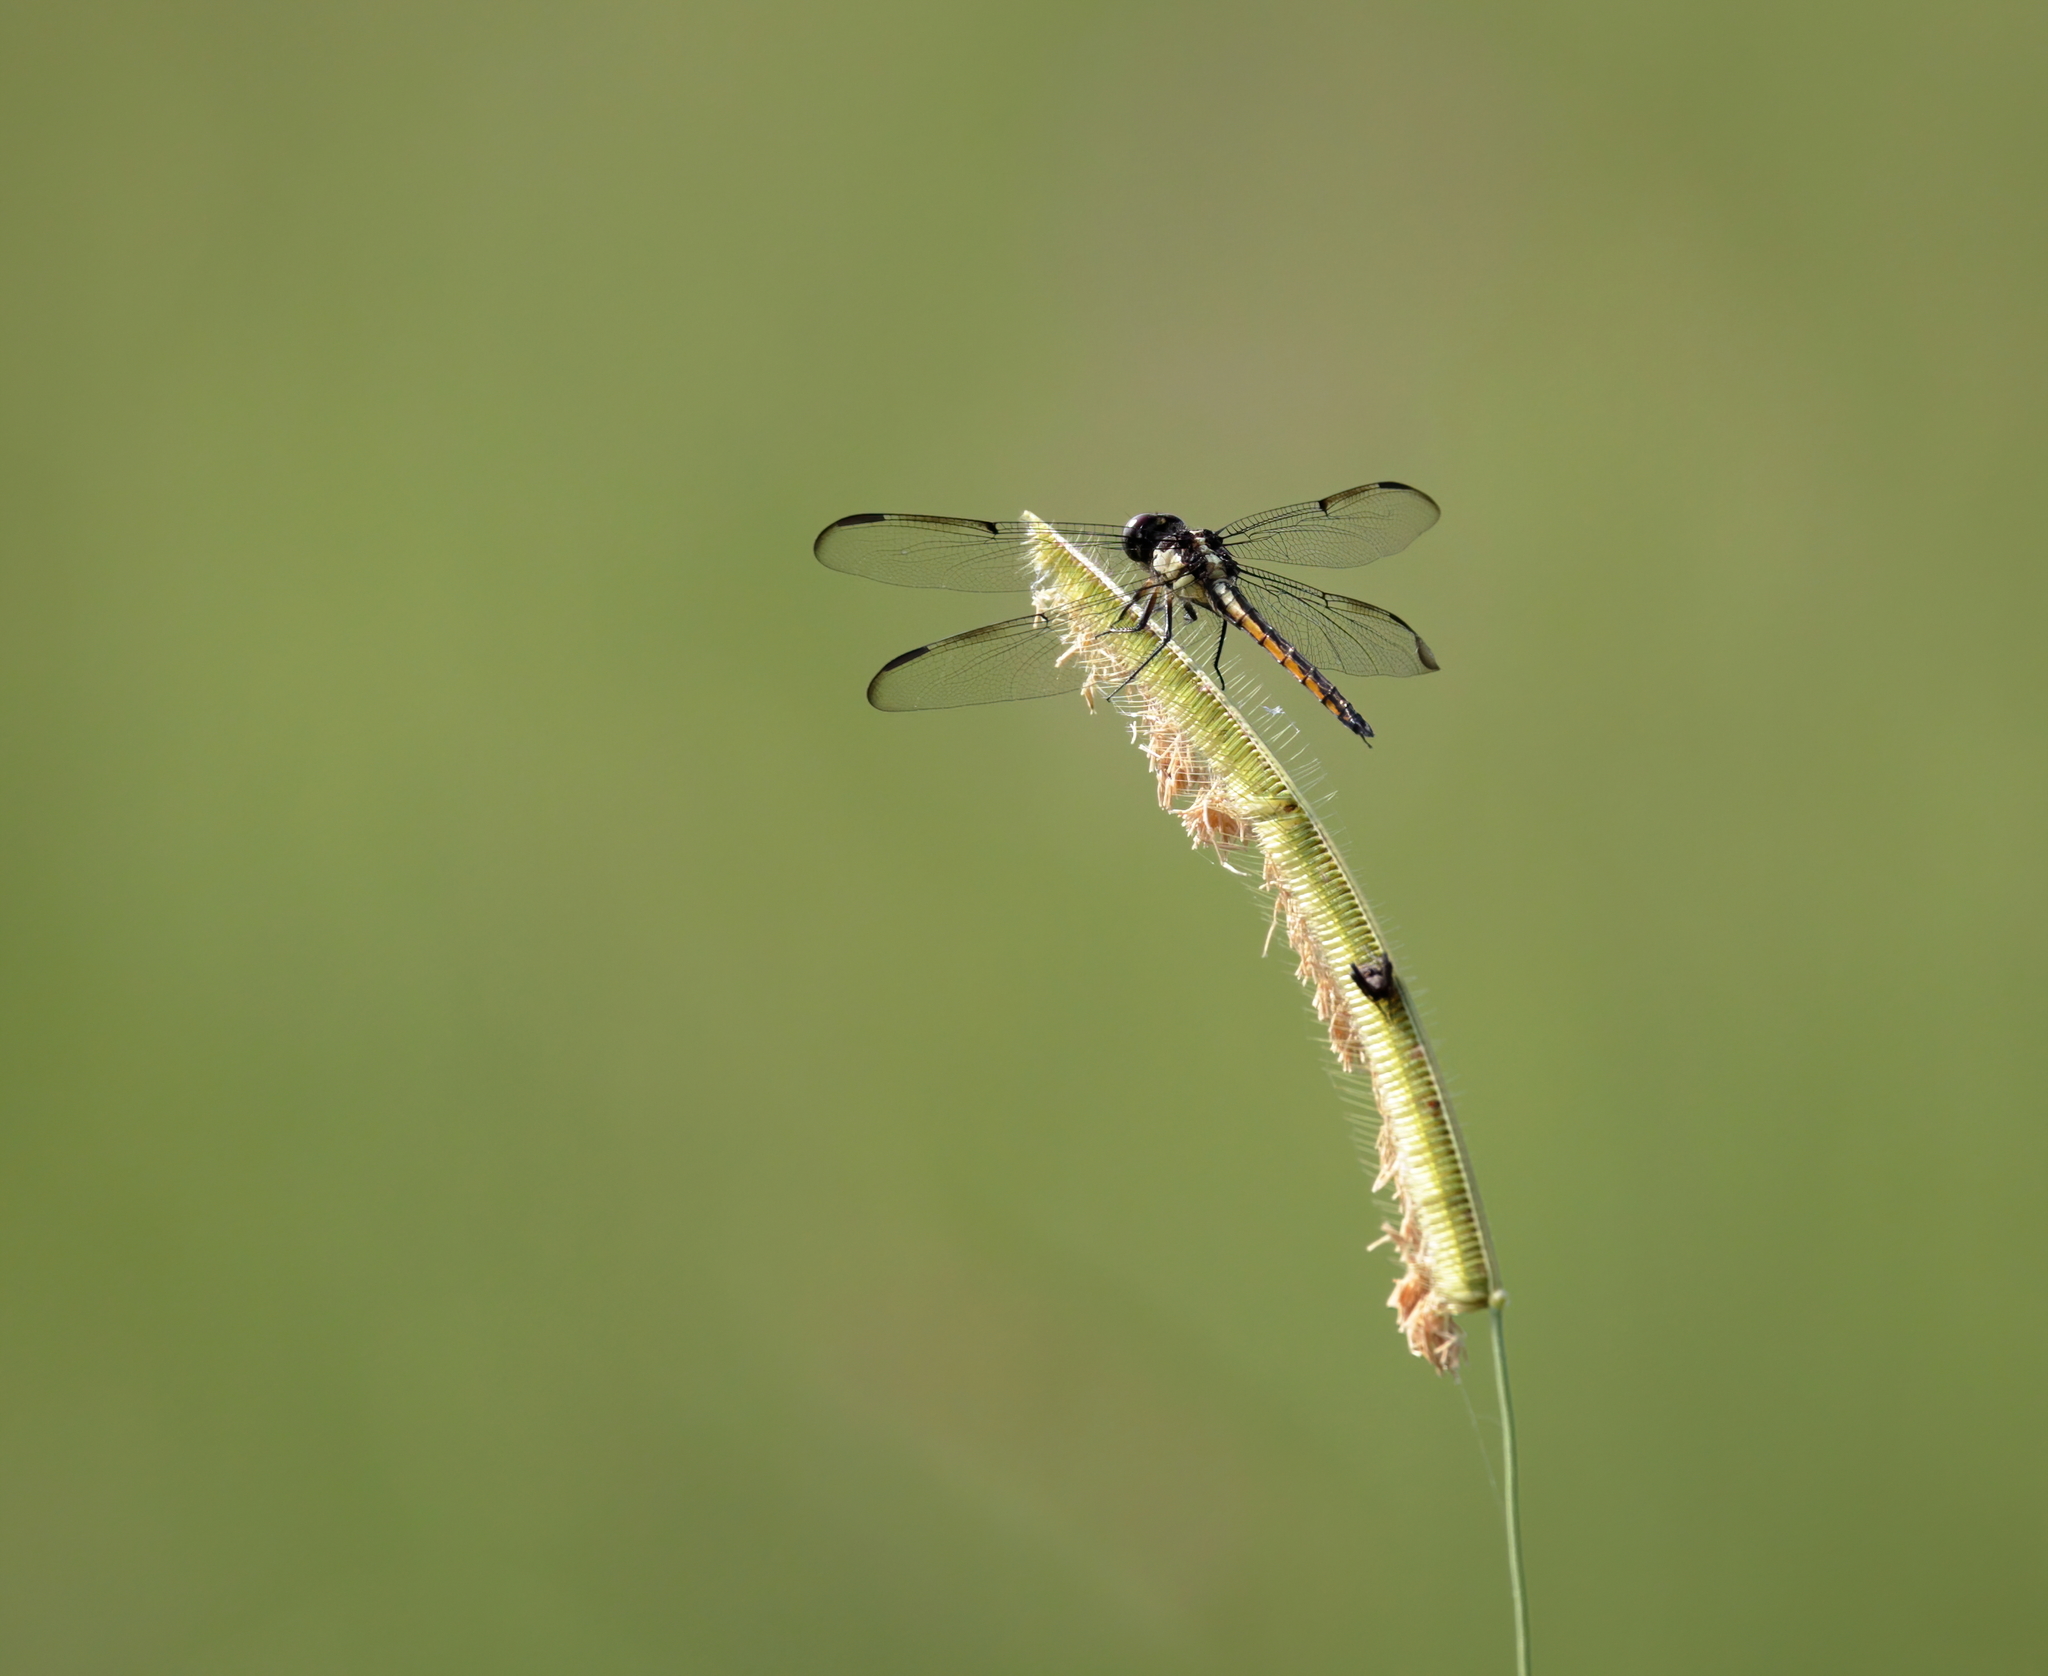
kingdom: Animalia
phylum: Arthropoda
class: Insecta
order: Odonata
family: Libellulidae
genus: Libellula
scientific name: Libellula vibrans
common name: Great blue skimmer
